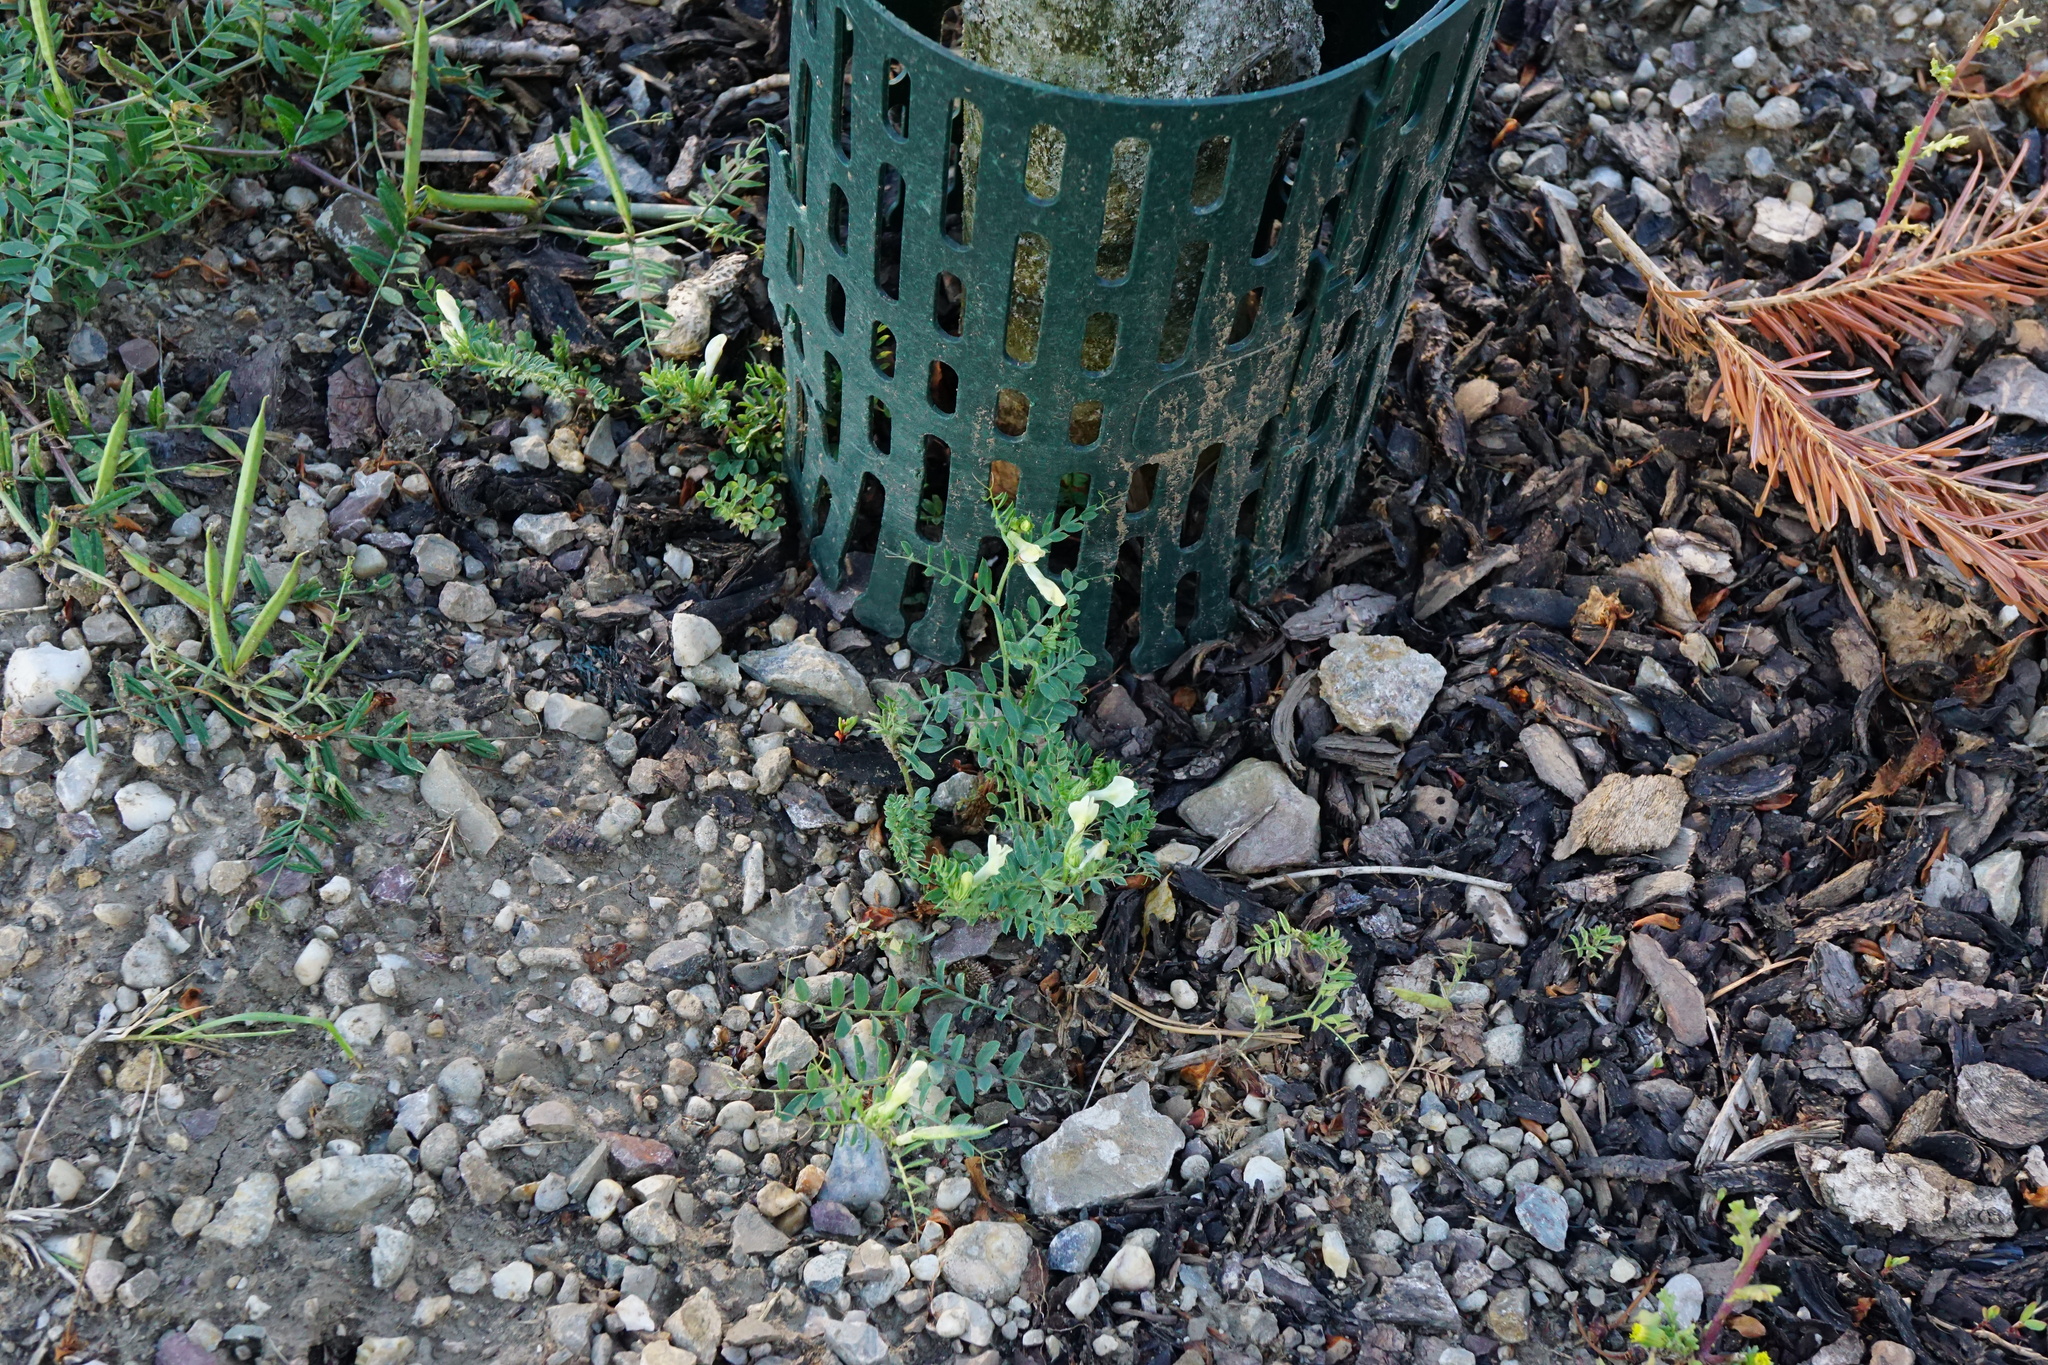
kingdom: Plantae
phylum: Tracheophyta
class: Magnoliopsida
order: Fabales
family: Fabaceae
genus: Vicia
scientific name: Vicia lutea
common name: Smooth yellow vetch
